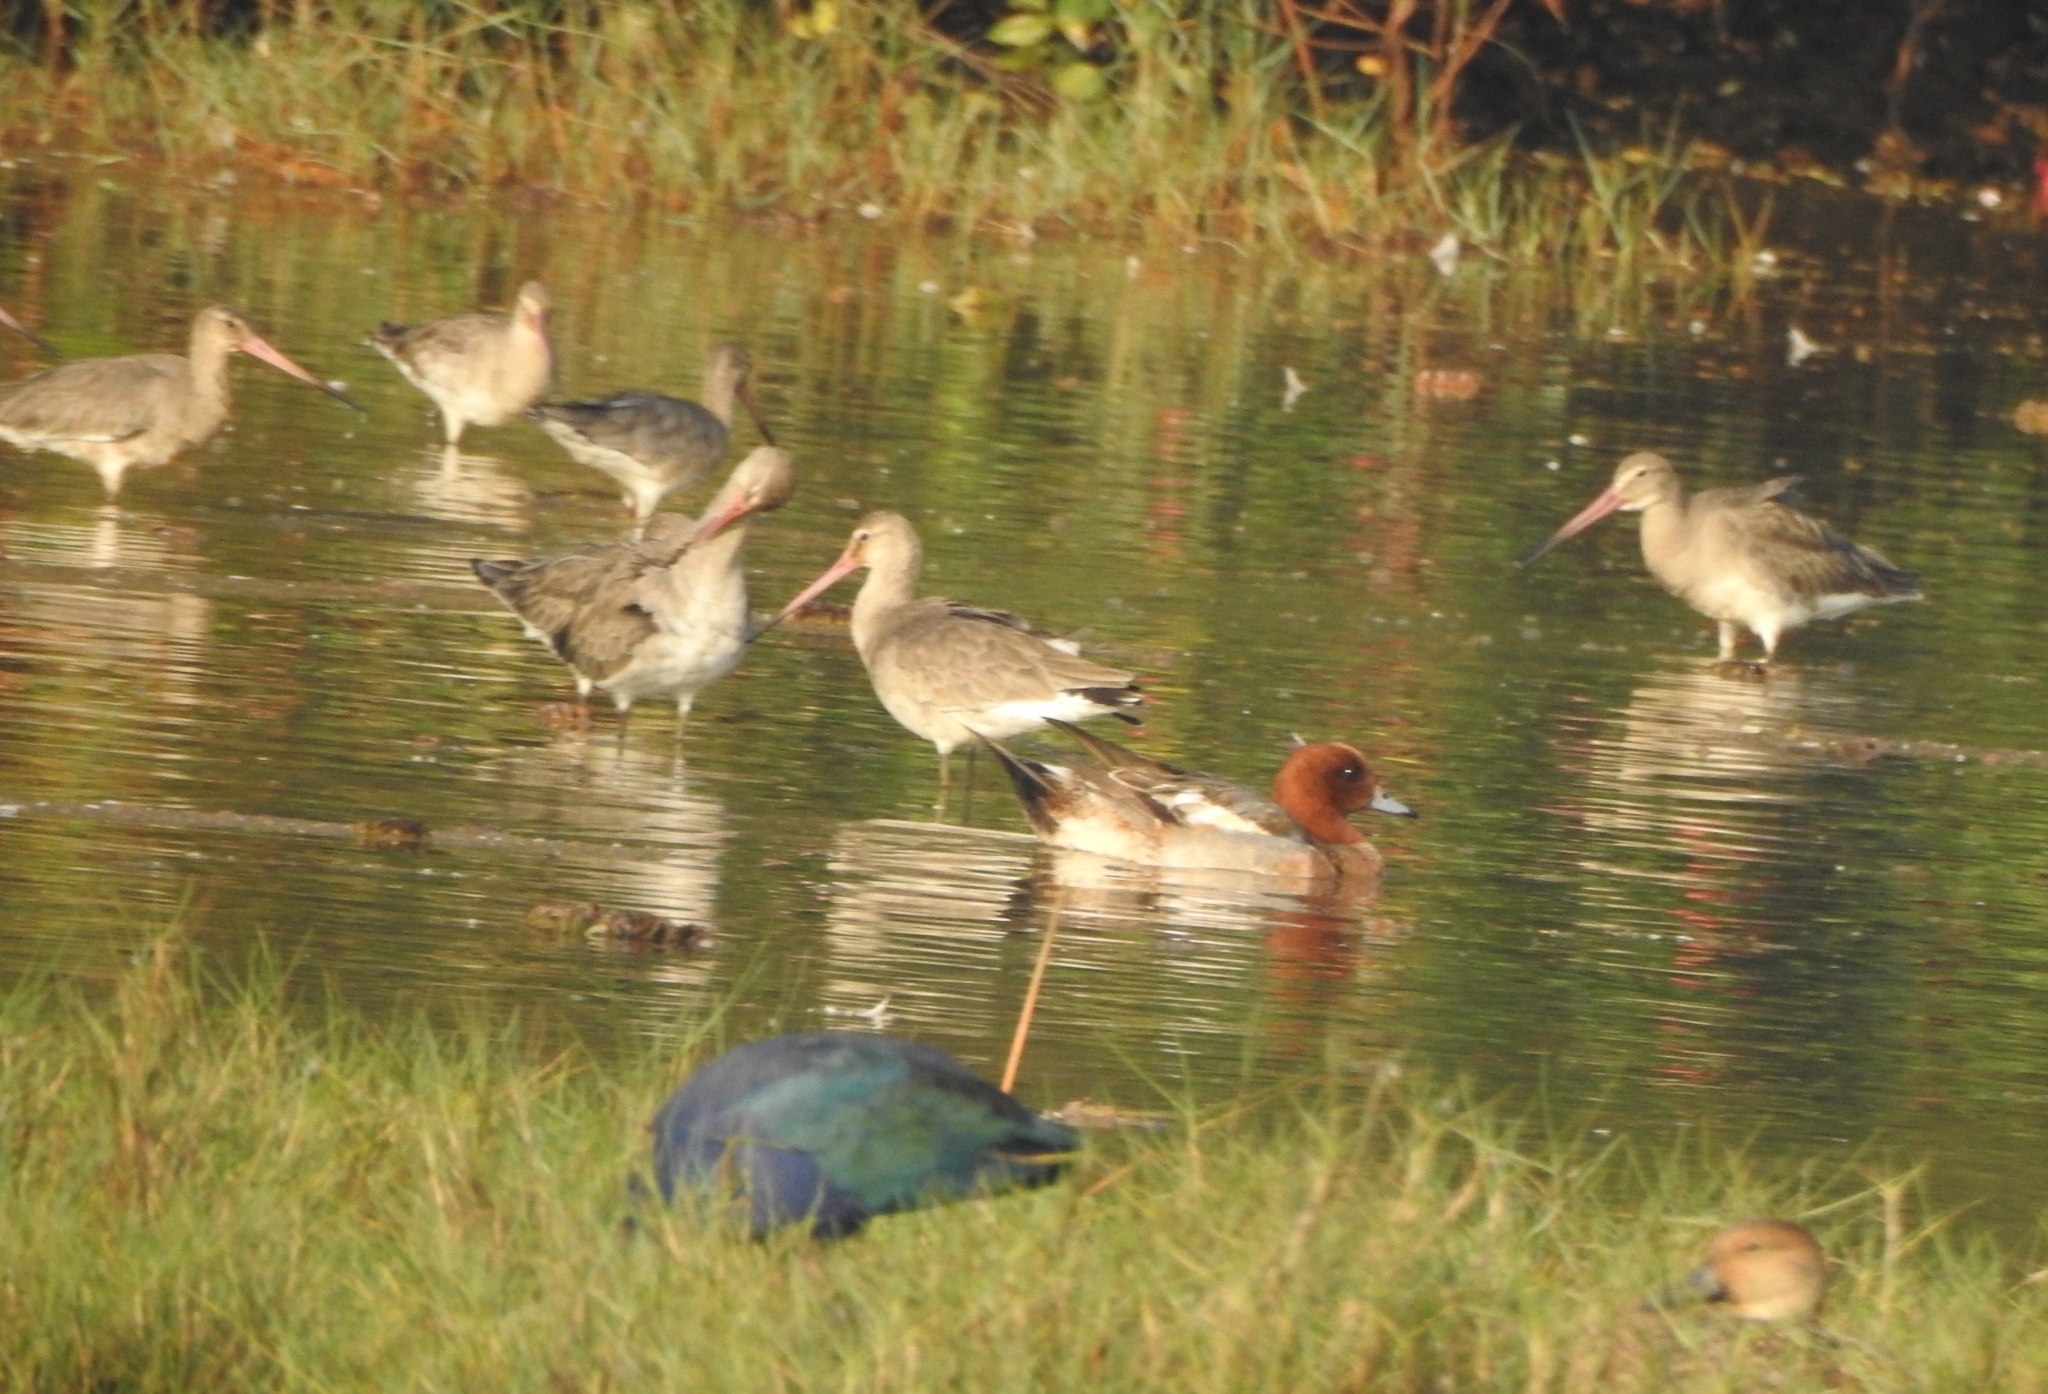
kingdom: Animalia
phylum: Chordata
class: Aves
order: Charadriiformes
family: Scolopacidae
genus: Limosa
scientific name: Limosa limosa
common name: Black-tailed godwit
